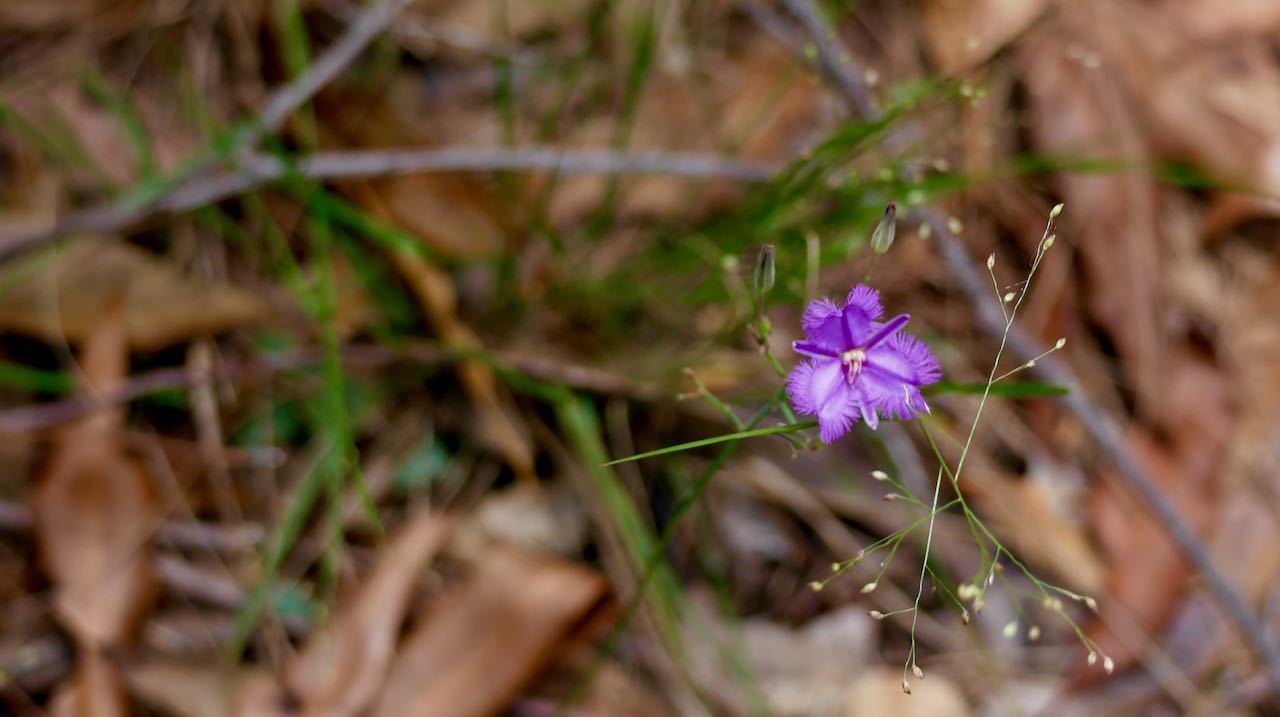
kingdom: Plantae
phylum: Tracheophyta
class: Liliopsida
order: Asparagales
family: Asparagaceae
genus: Thysanotus
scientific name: Thysanotus tuberosus
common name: Common fringed-lily
